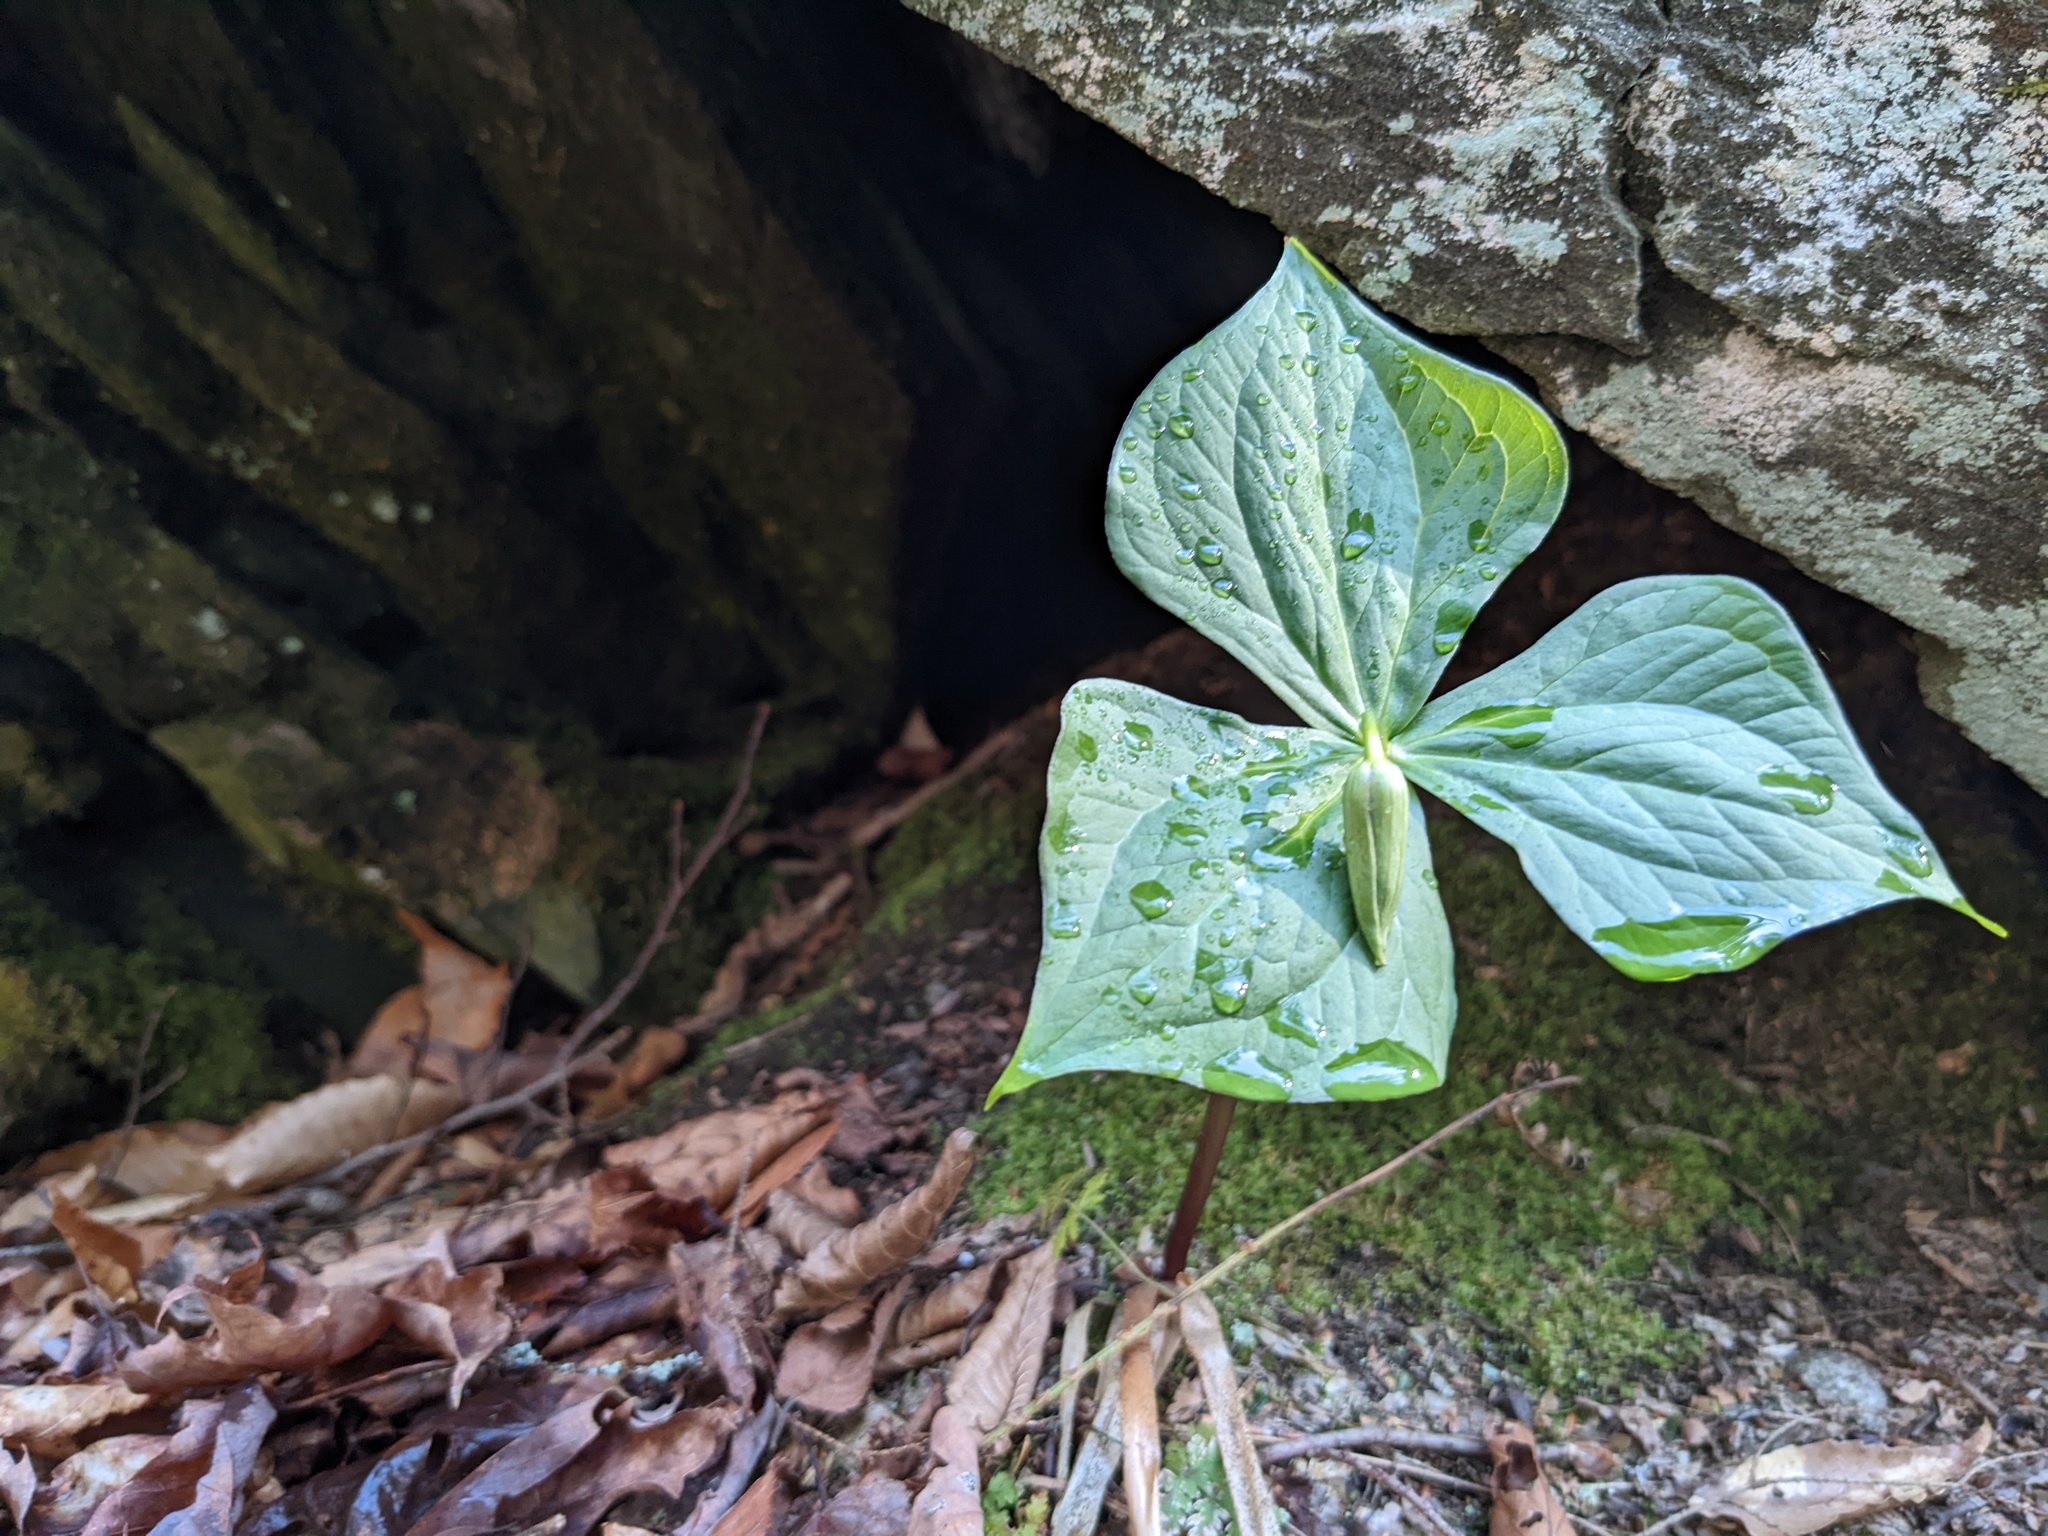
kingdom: Plantae
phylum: Tracheophyta
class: Liliopsida
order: Liliales
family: Melanthiaceae
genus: Trillium
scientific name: Trillium erectum
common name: Purple trillium
